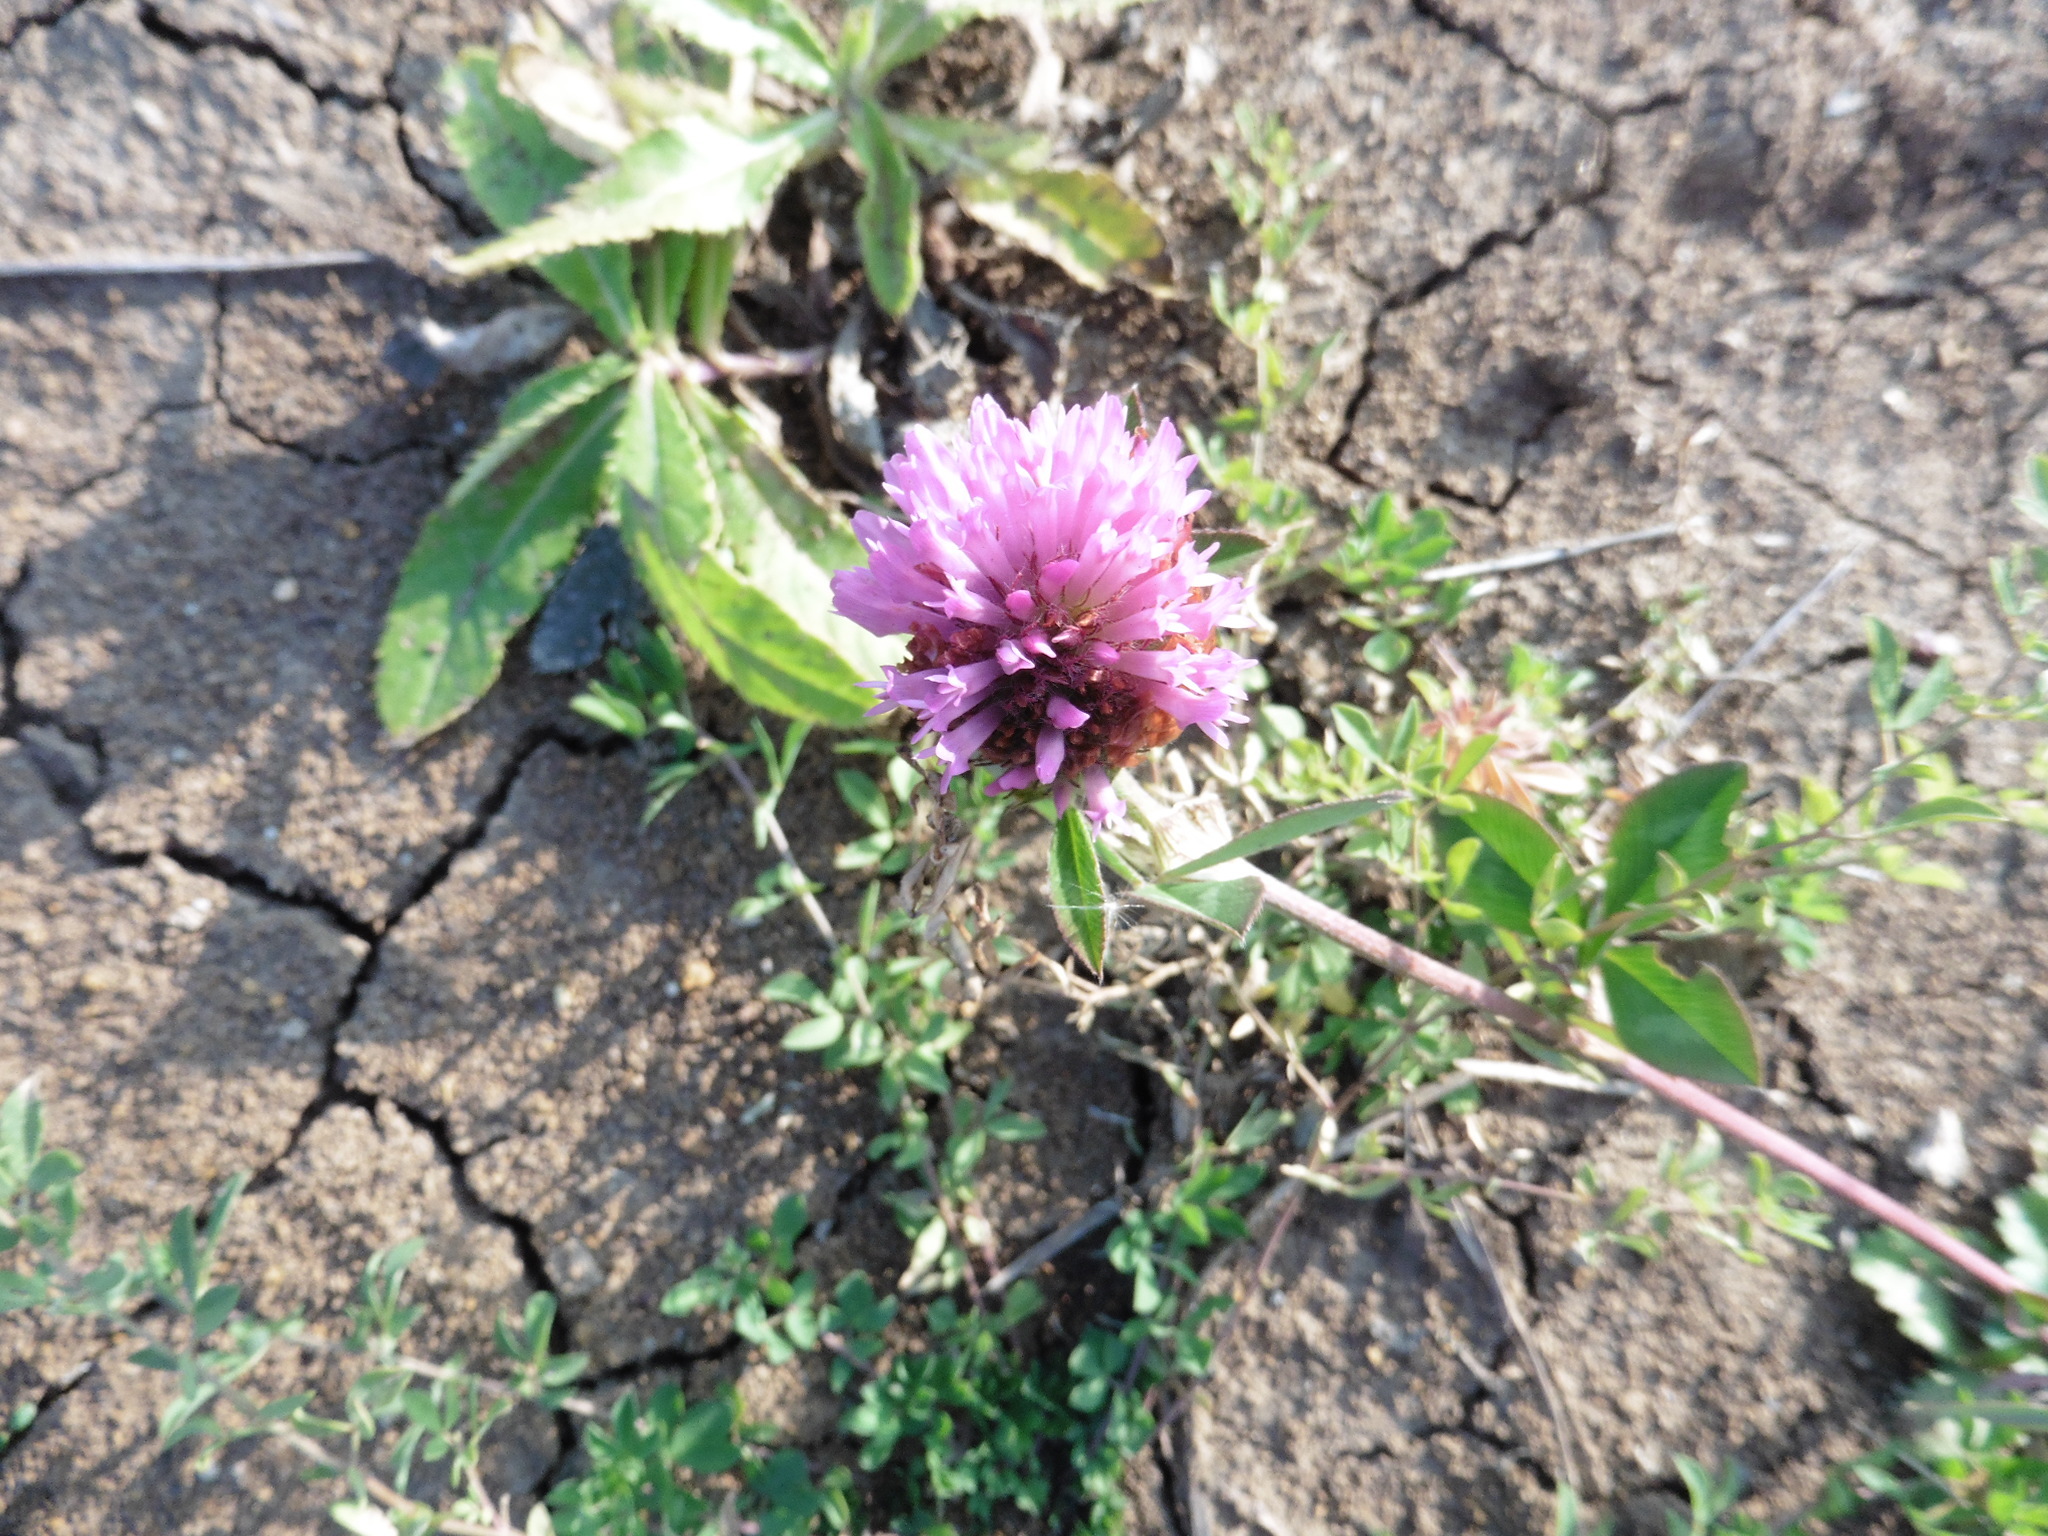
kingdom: Plantae
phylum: Tracheophyta
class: Magnoliopsida
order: Fabales
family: Fabaceae
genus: Trifolium
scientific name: Trifolium pratense
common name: Red clover
